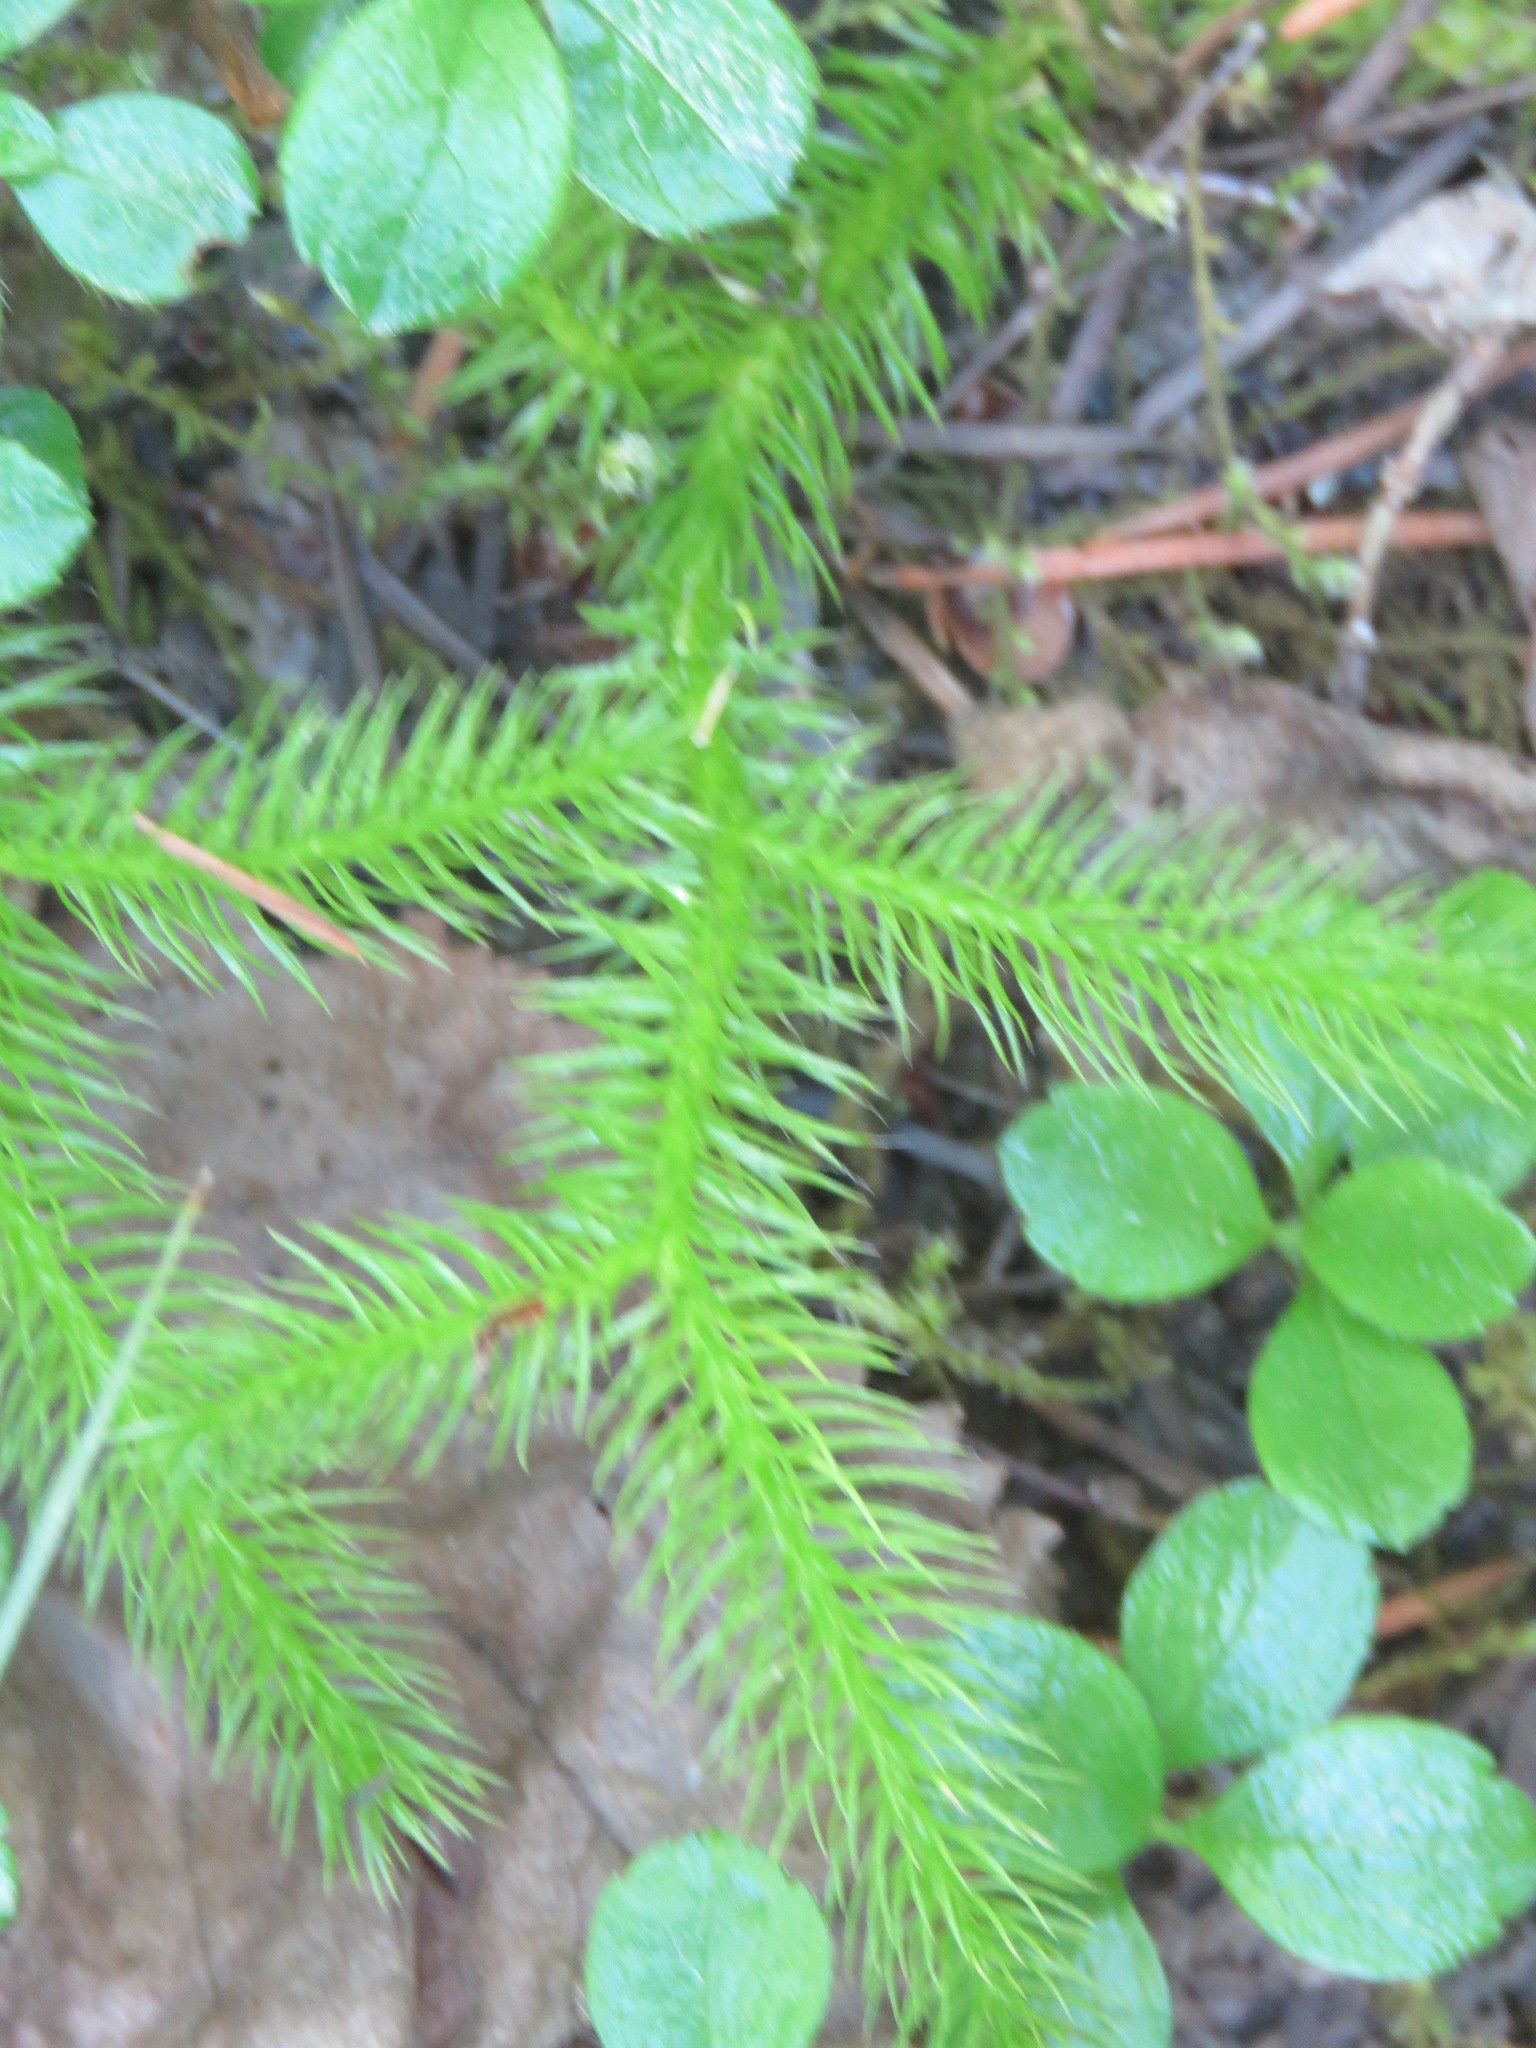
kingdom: Plantae
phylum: Tracheophyta
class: Lycopodiopsida
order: Lycopodiales
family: Lycopodiaceae
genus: Lycopodium
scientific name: Lycopodium clavatum
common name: Stag's-horn clubmoss
